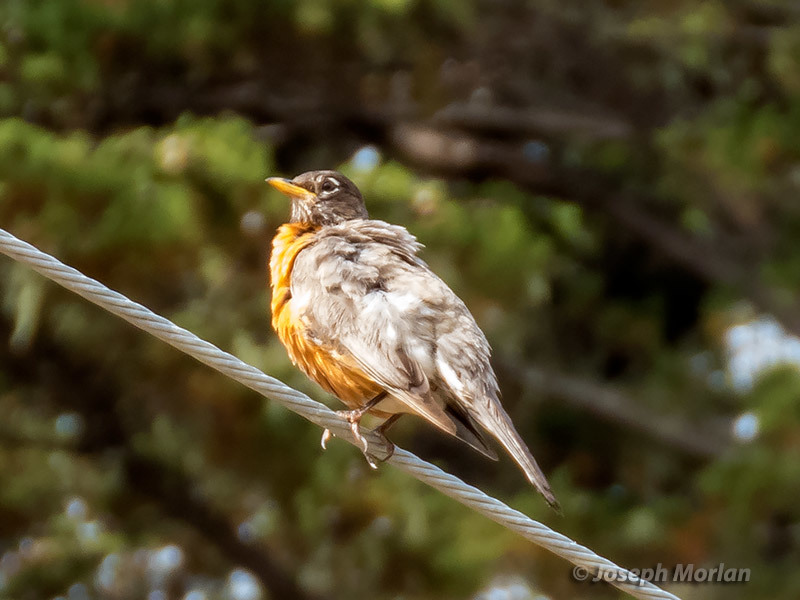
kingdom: Animalia
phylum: Chordata
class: Aves
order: Passeriformes
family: Turdidae
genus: Turdus
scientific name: Turdus migratorius
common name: American robin
